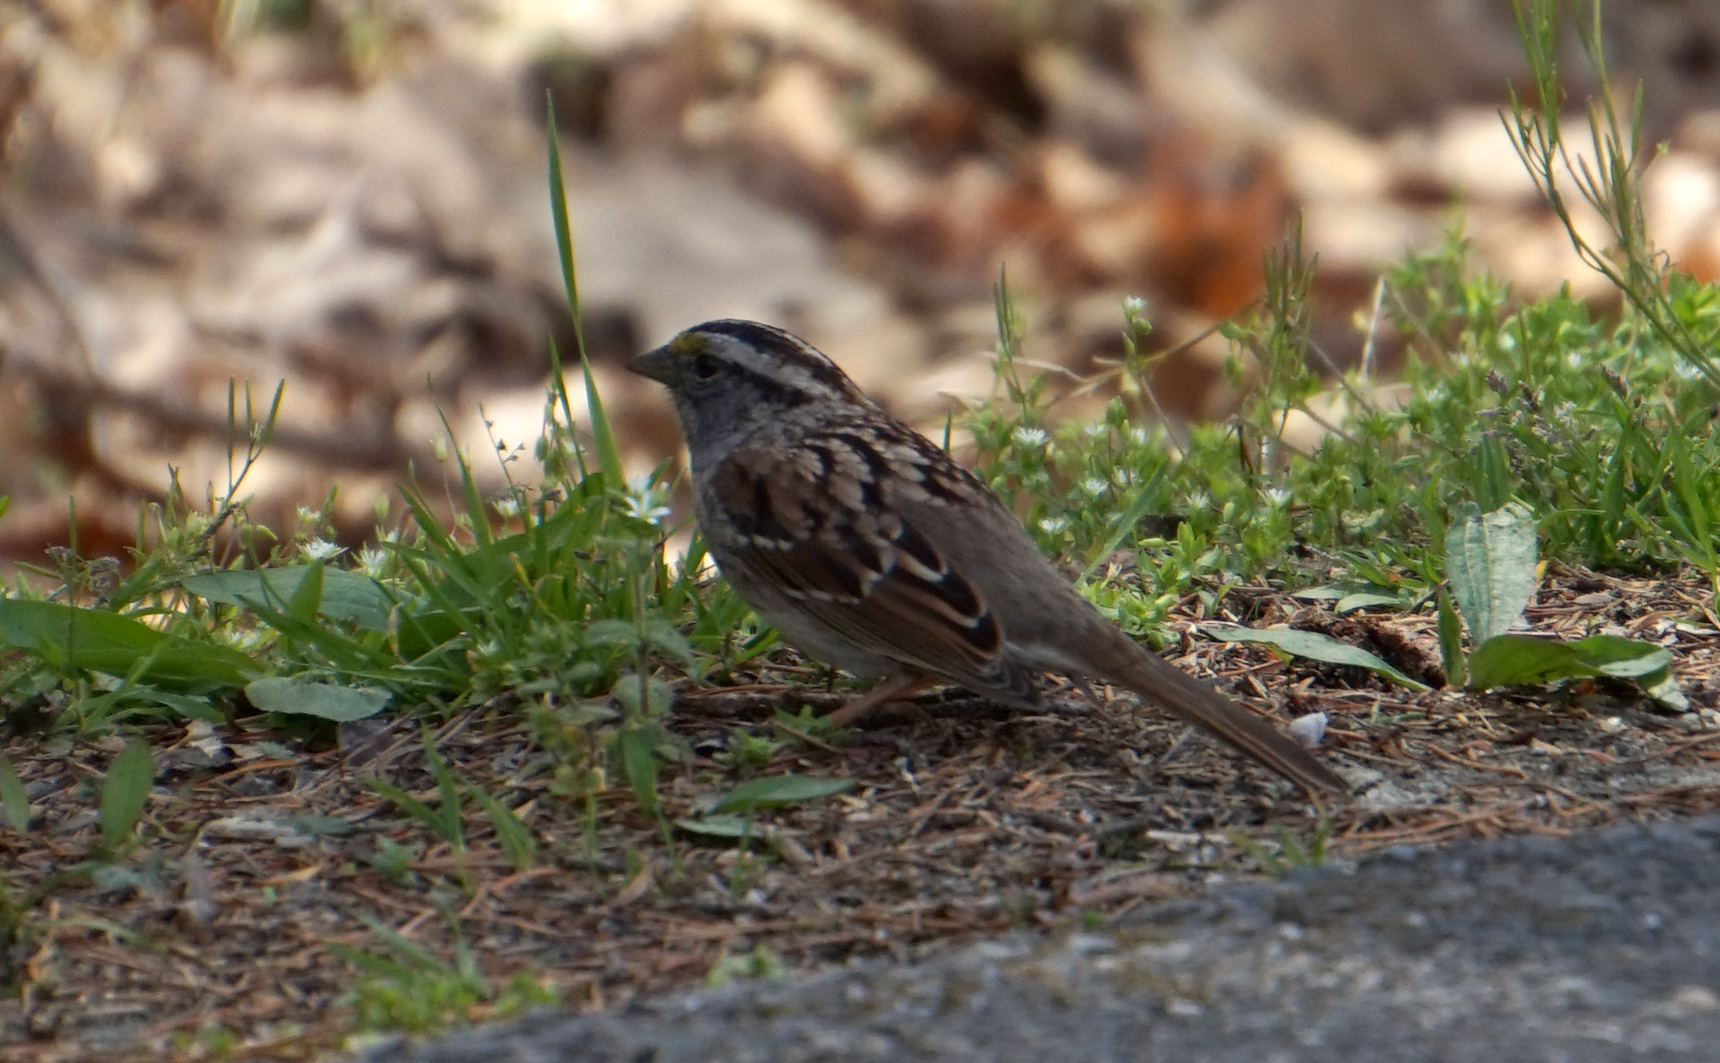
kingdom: Animalia
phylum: Chordata
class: Aves
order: Passeriformes
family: Passerellidae
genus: Zonotrichia
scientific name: Zonotrichia albicollis
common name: White-throated sparrow
